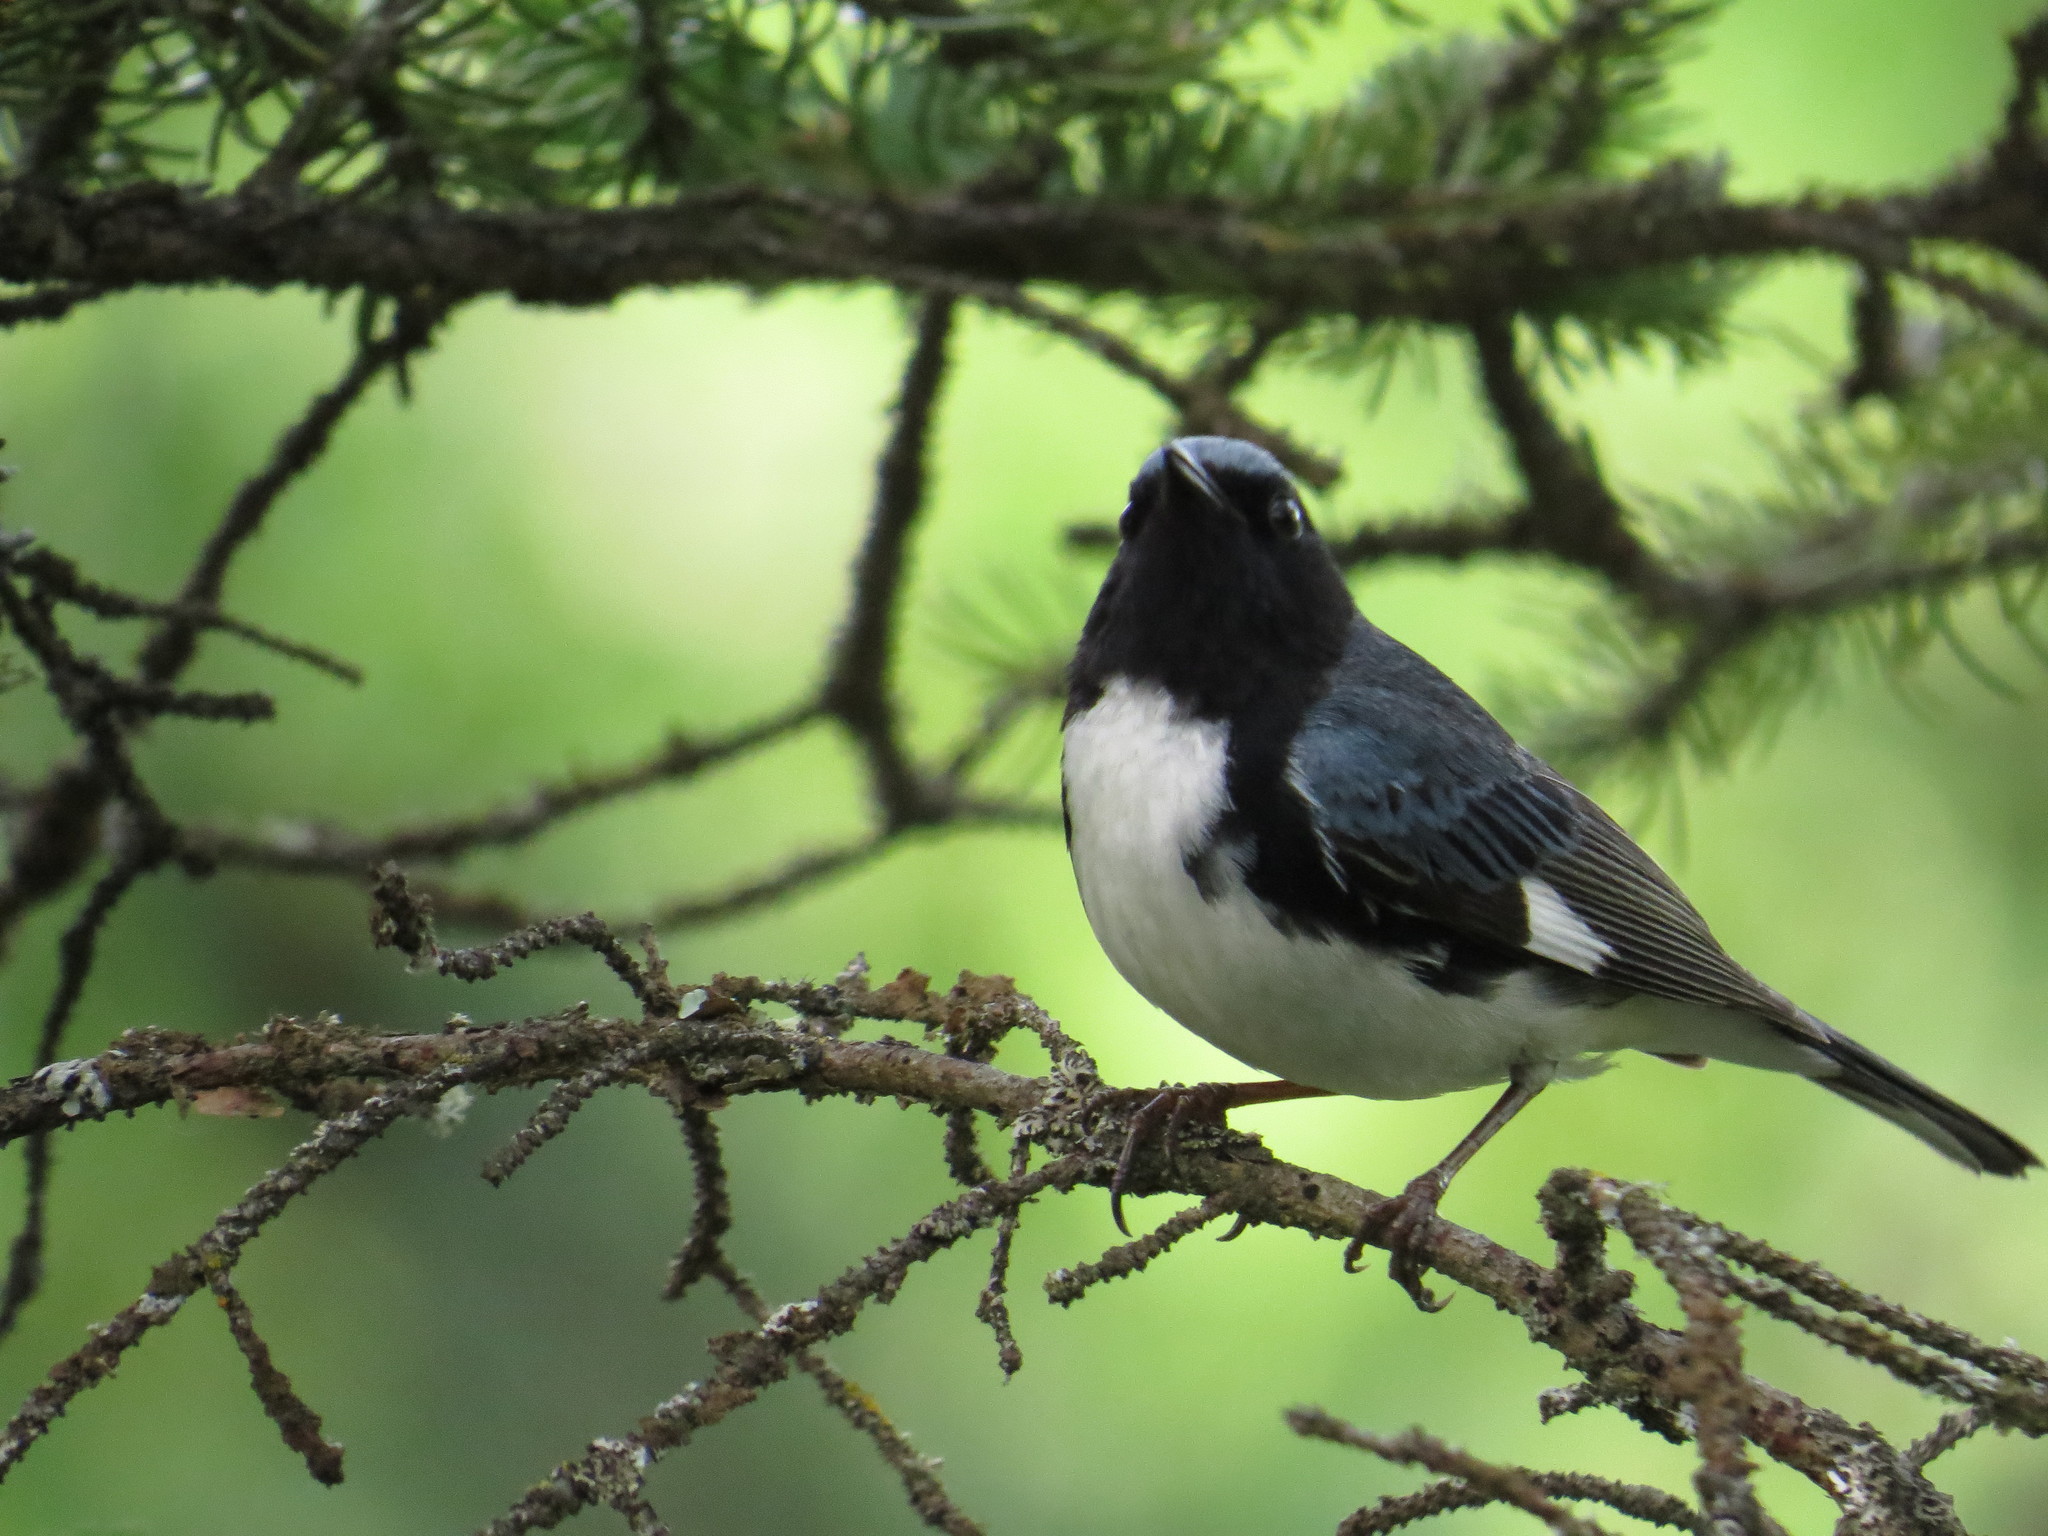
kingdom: Animalia
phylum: Chordata
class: Aves
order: Passeriformes
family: Parulidae
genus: Setophaga
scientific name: Setophaga caerulescens
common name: Black-throated blue warbler
